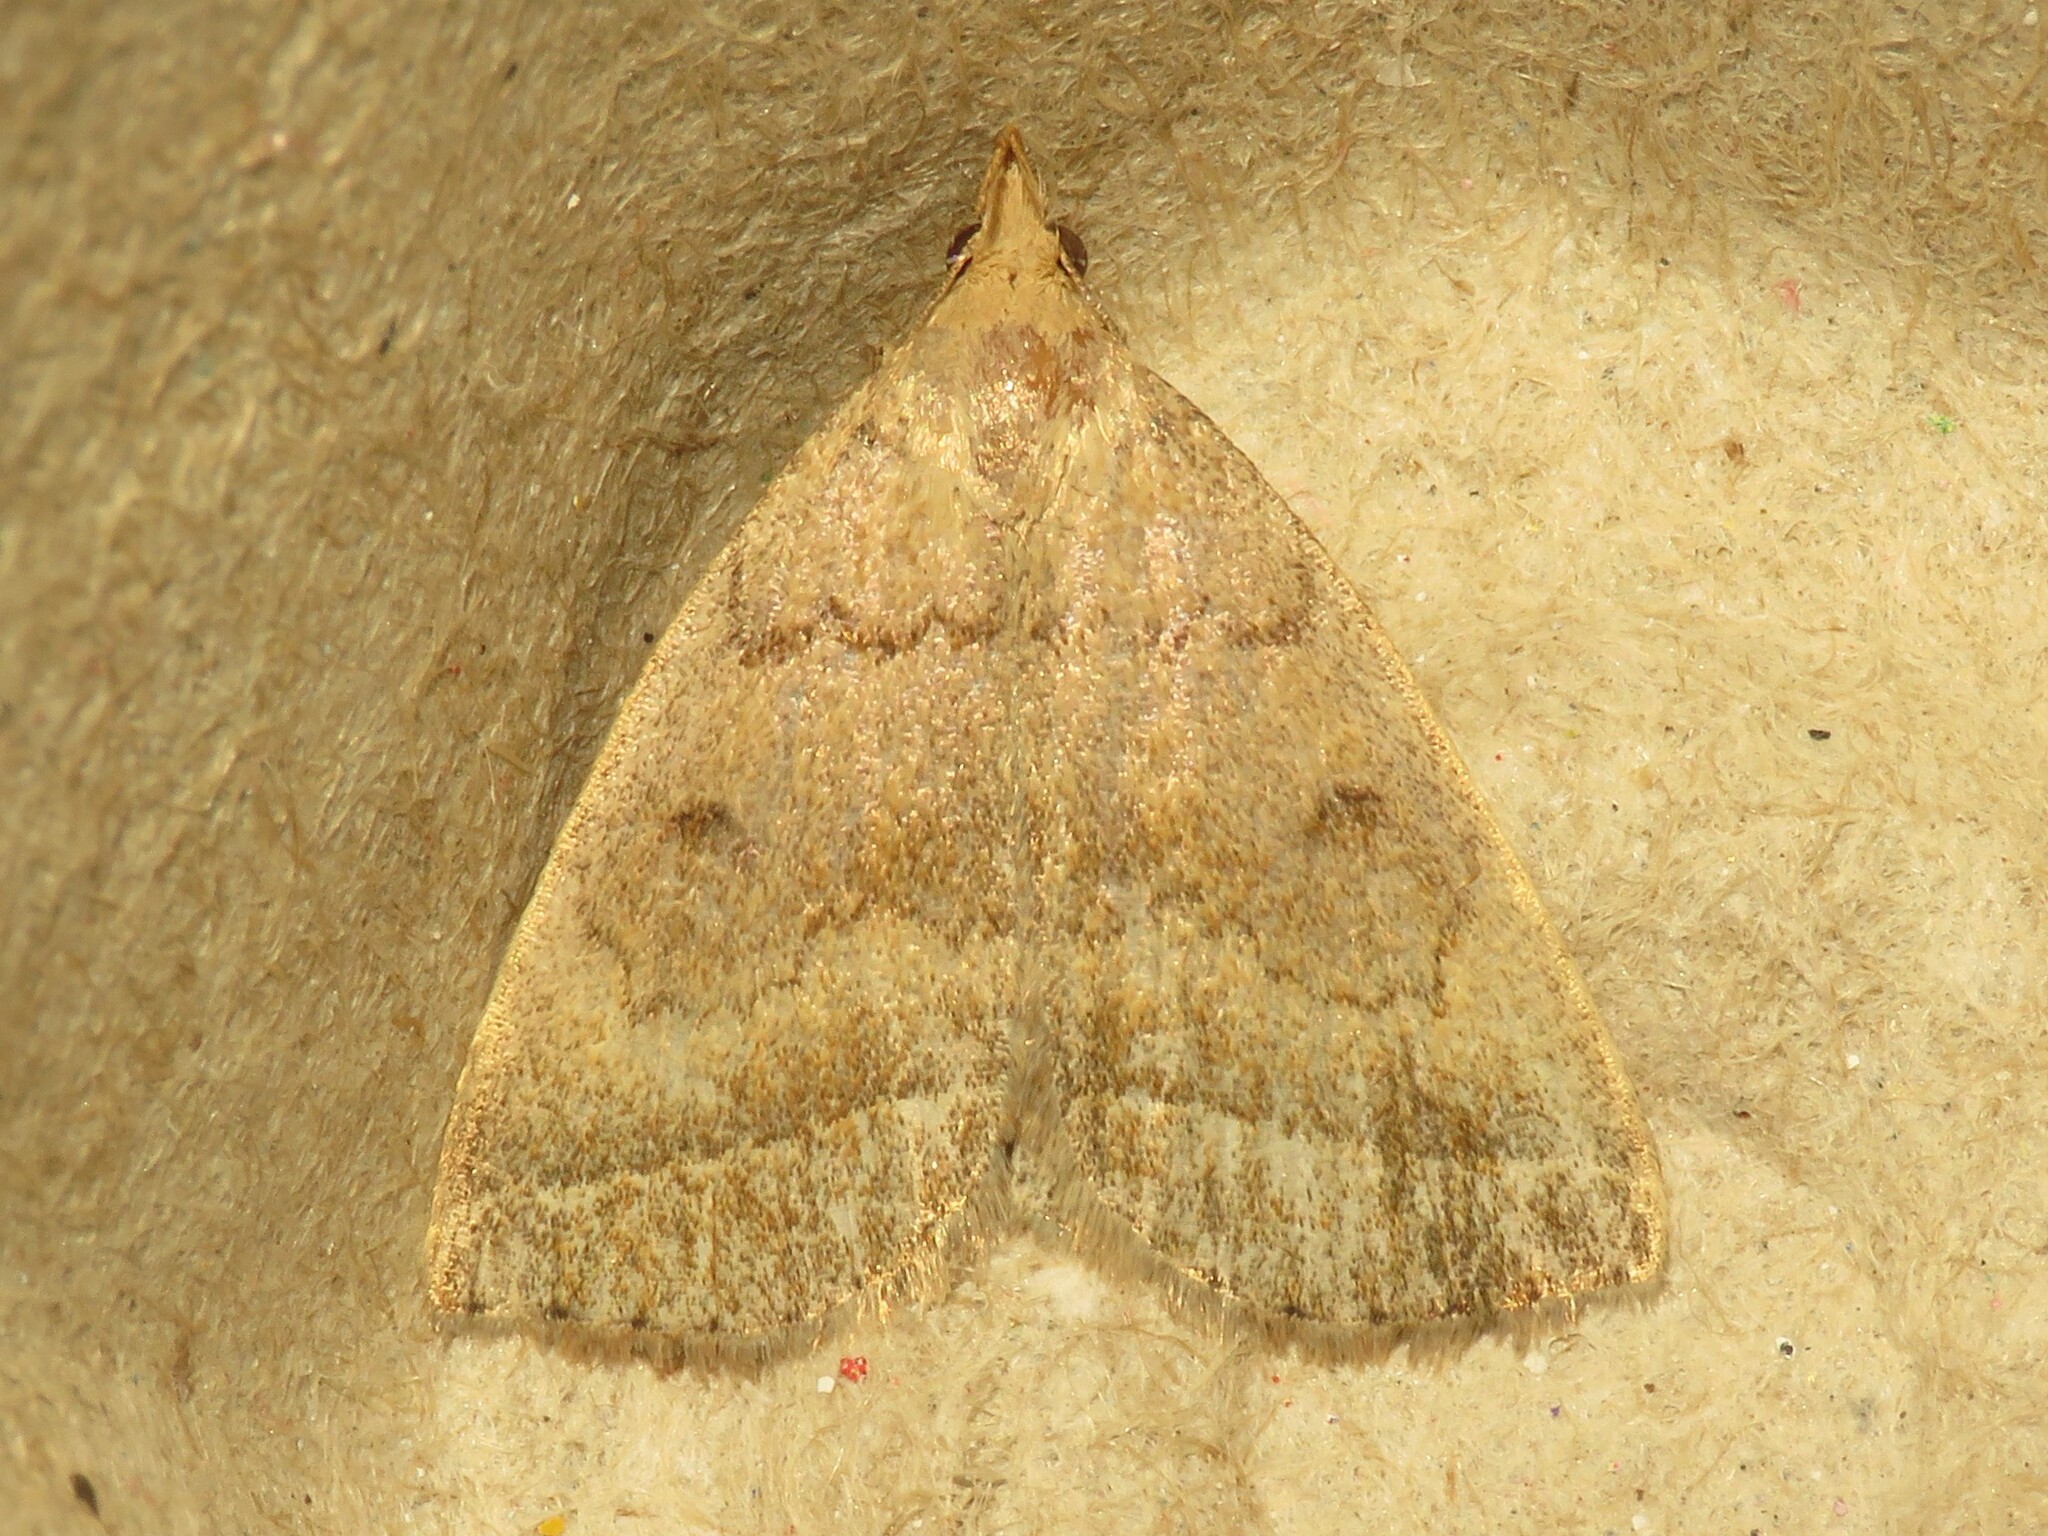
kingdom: Animalia
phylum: Arthropoda
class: Insecta
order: Lepidoptera
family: Erebidae
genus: Zanclognatha
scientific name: Zanclognatha jacchusalis
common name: Yellowish zanclognatha
